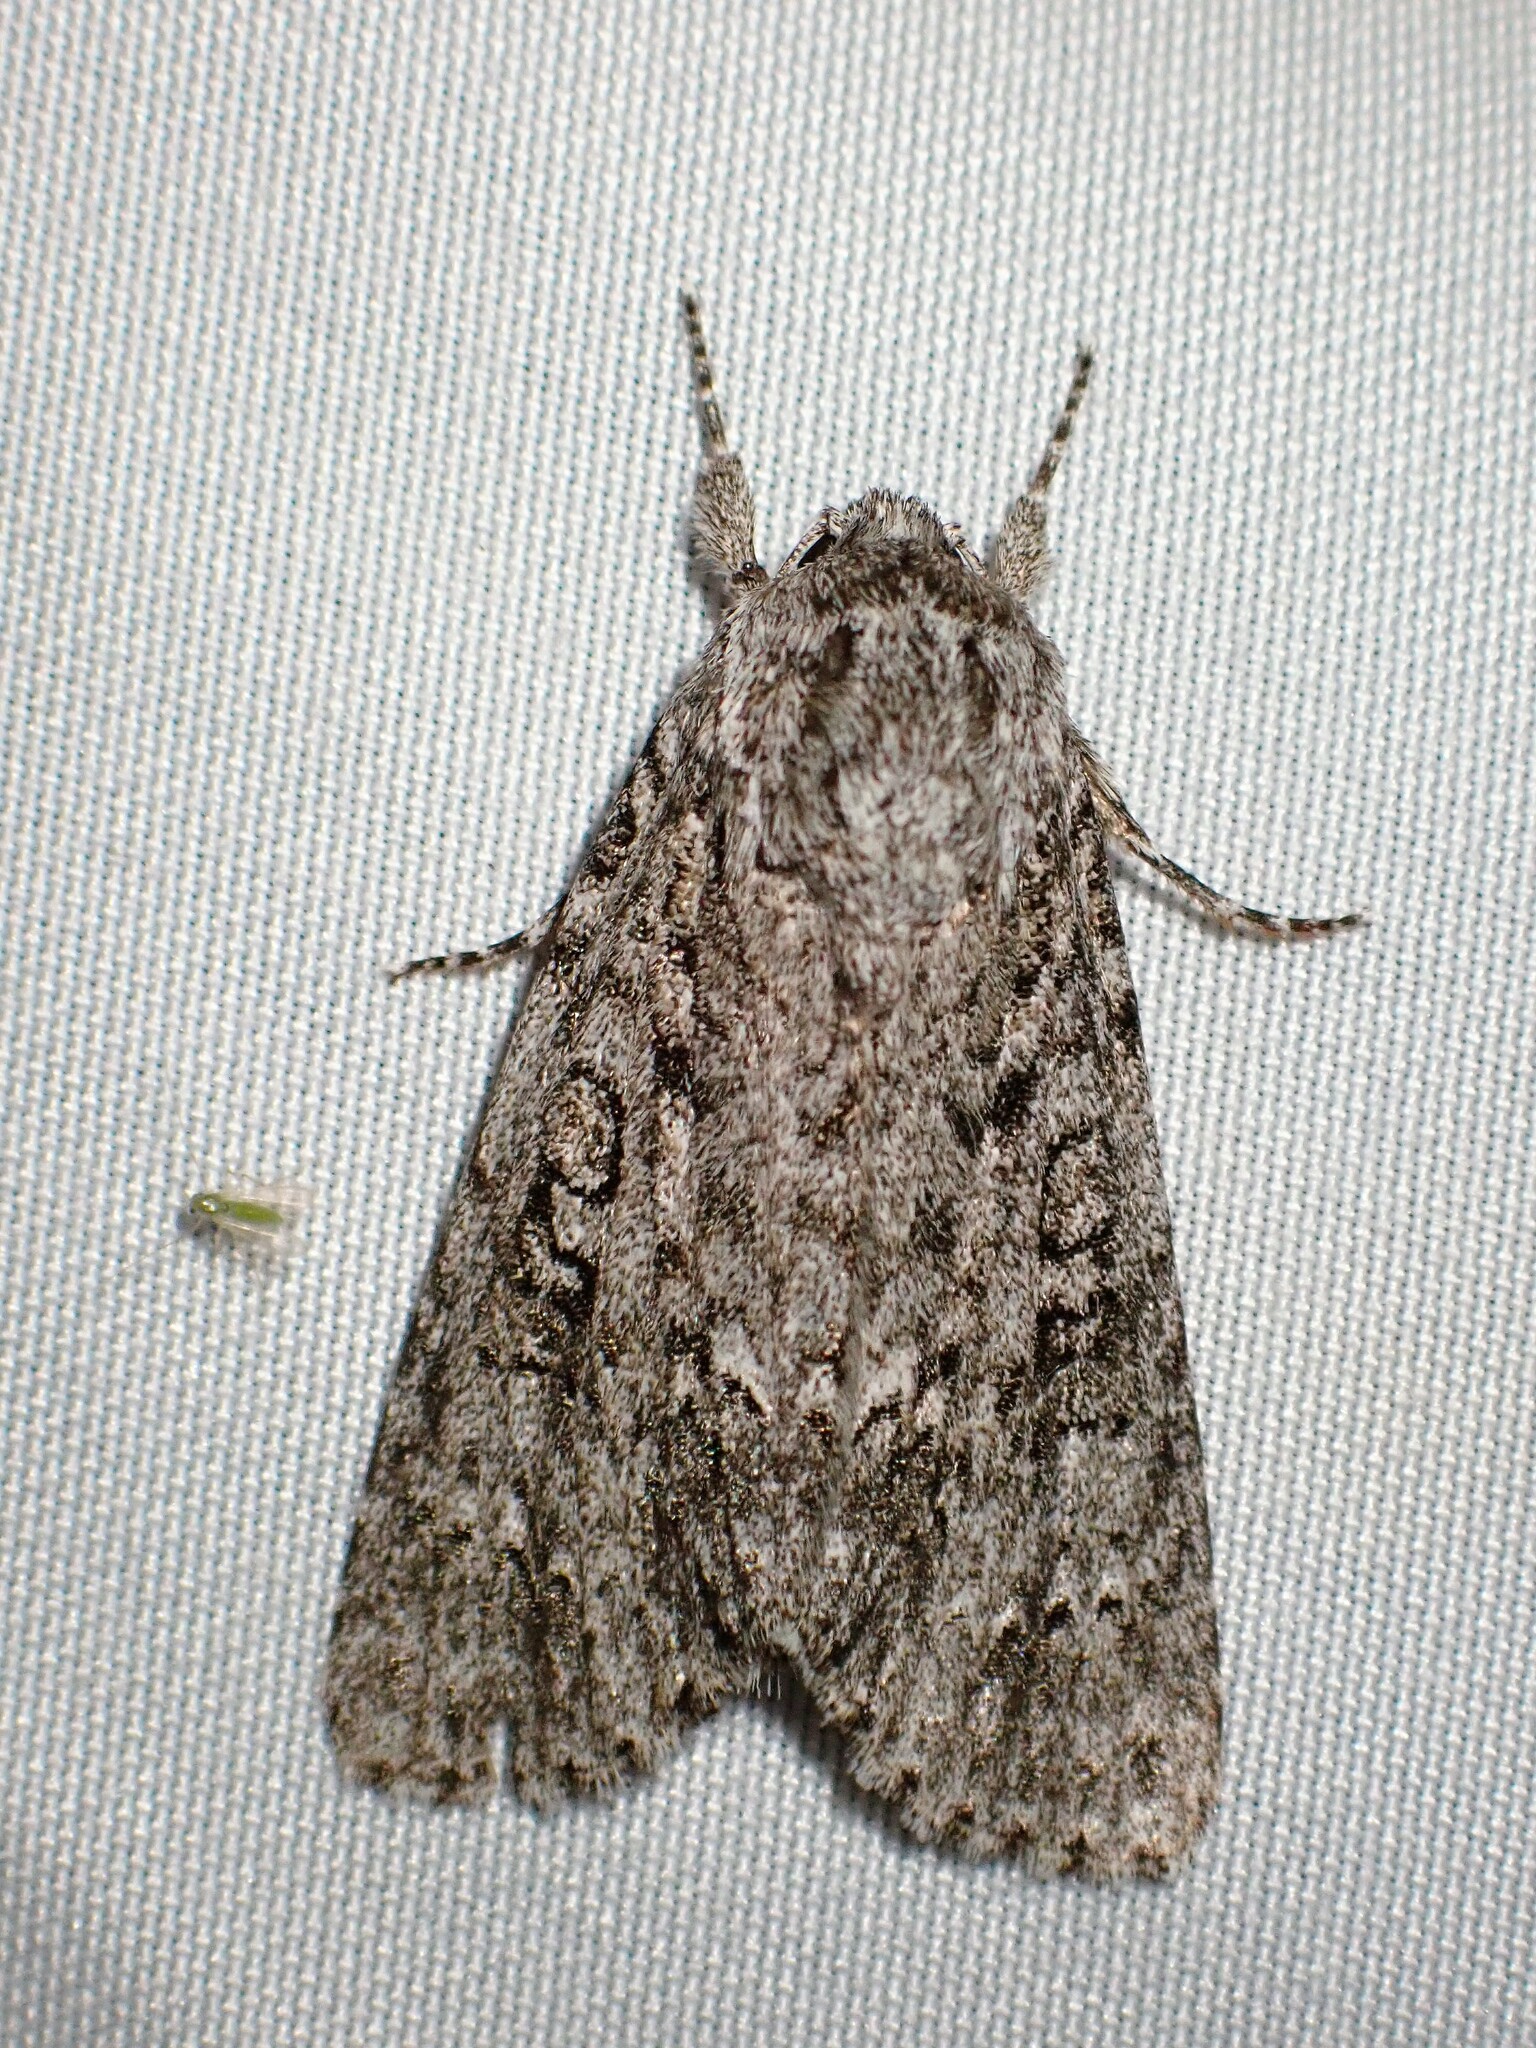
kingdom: Animalia
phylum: Arthropoda
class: Insecta
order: Lepidoptera
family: Noctuidae
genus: Acronicta
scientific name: Acronicta impleta
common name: Powdered dagger
